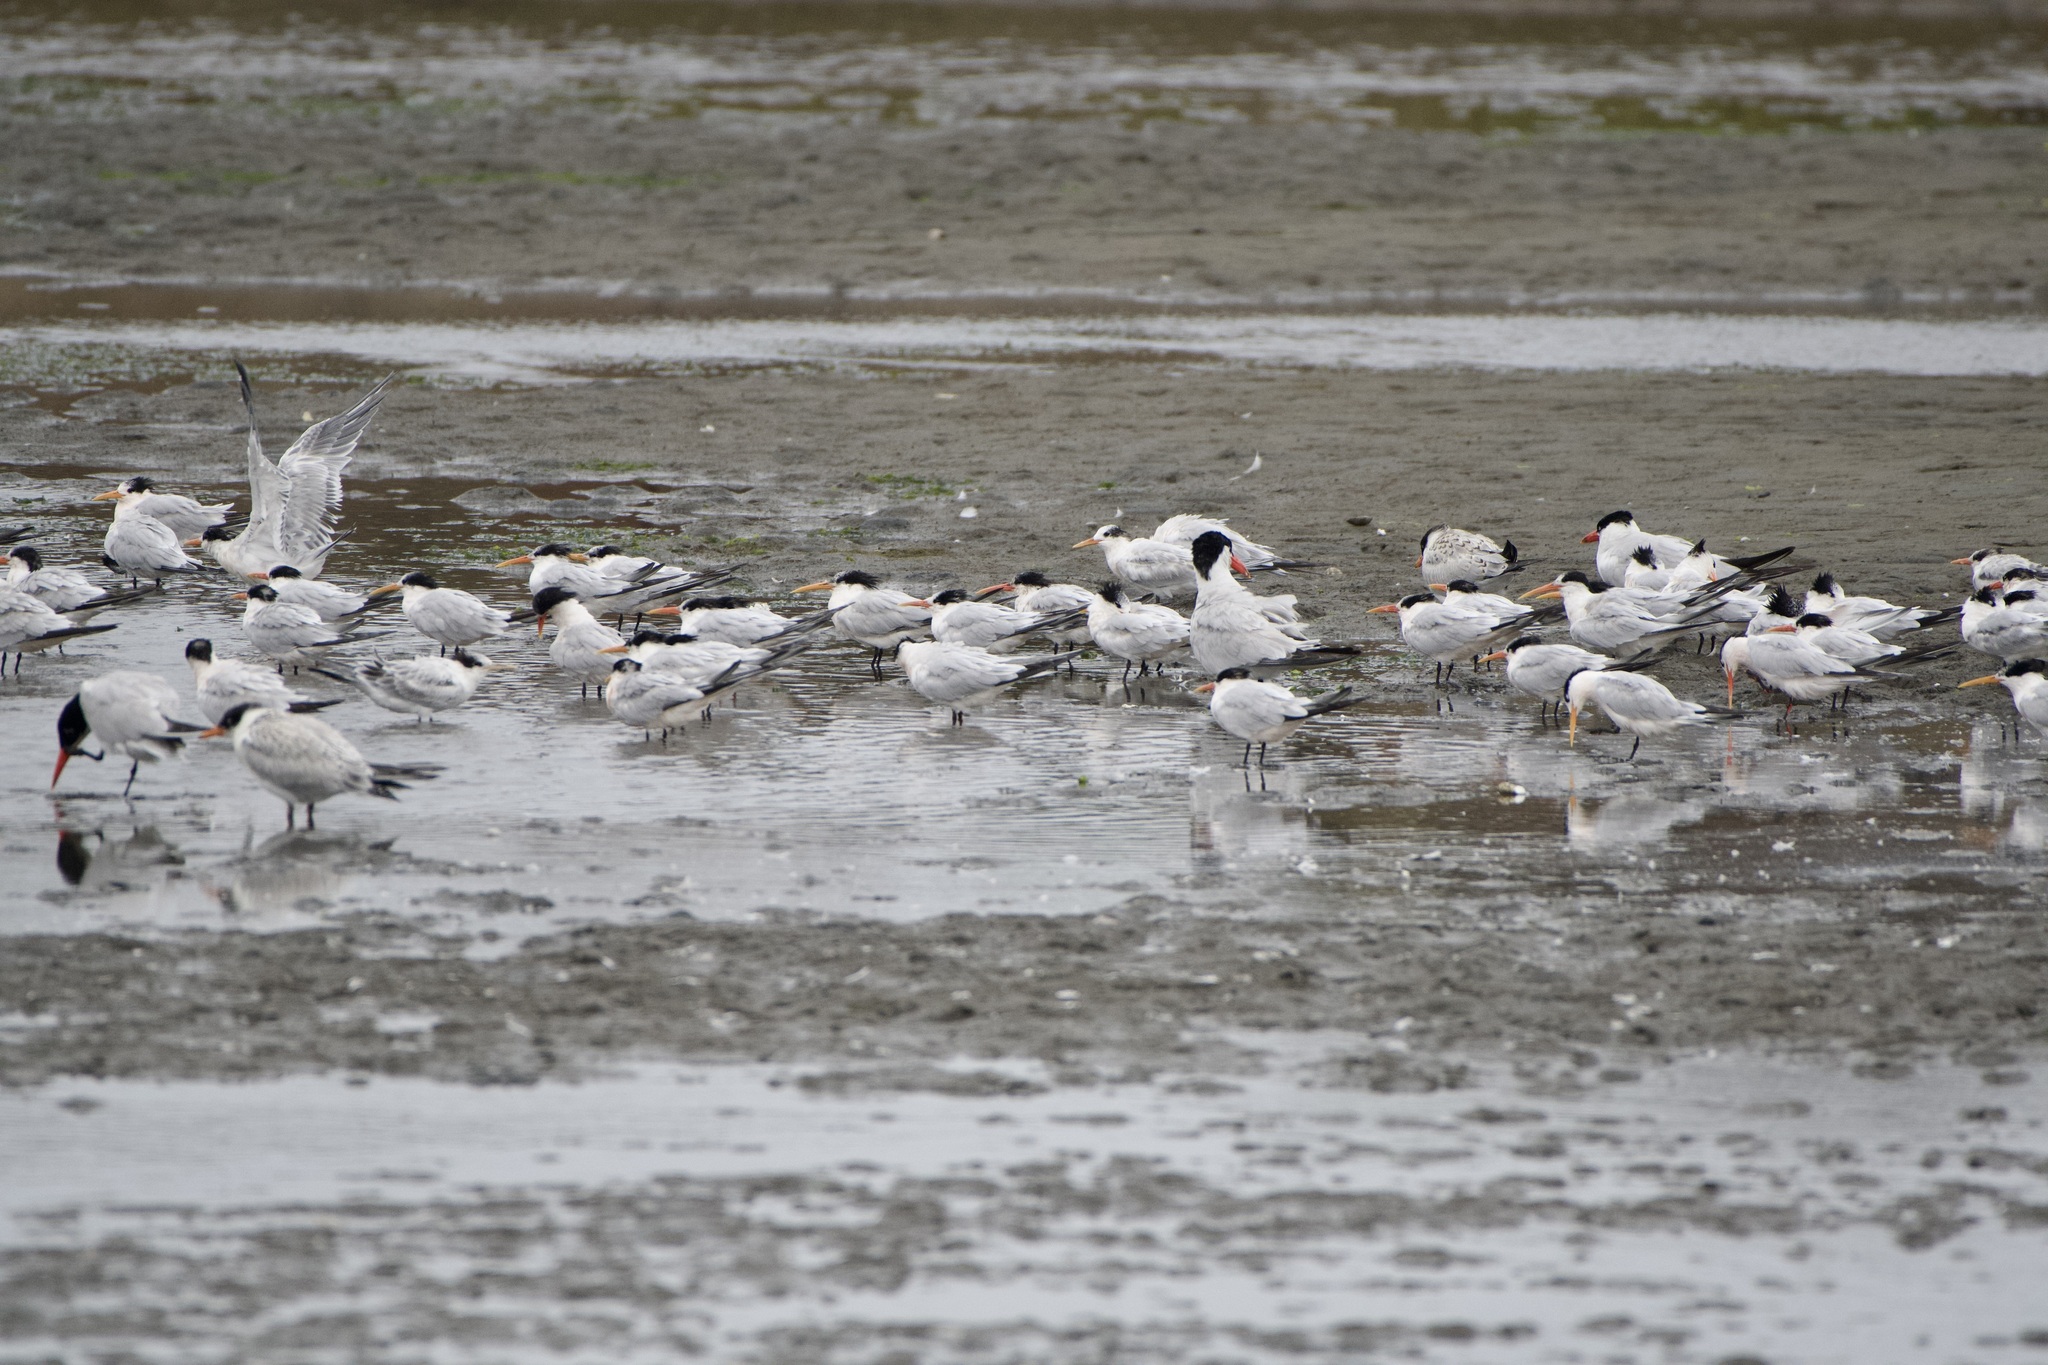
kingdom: Animalia
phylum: Chordata
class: Aves
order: Charadriiformes
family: Laridae
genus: Thalasseus
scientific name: Thalasseus elegans
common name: Elegant tern
